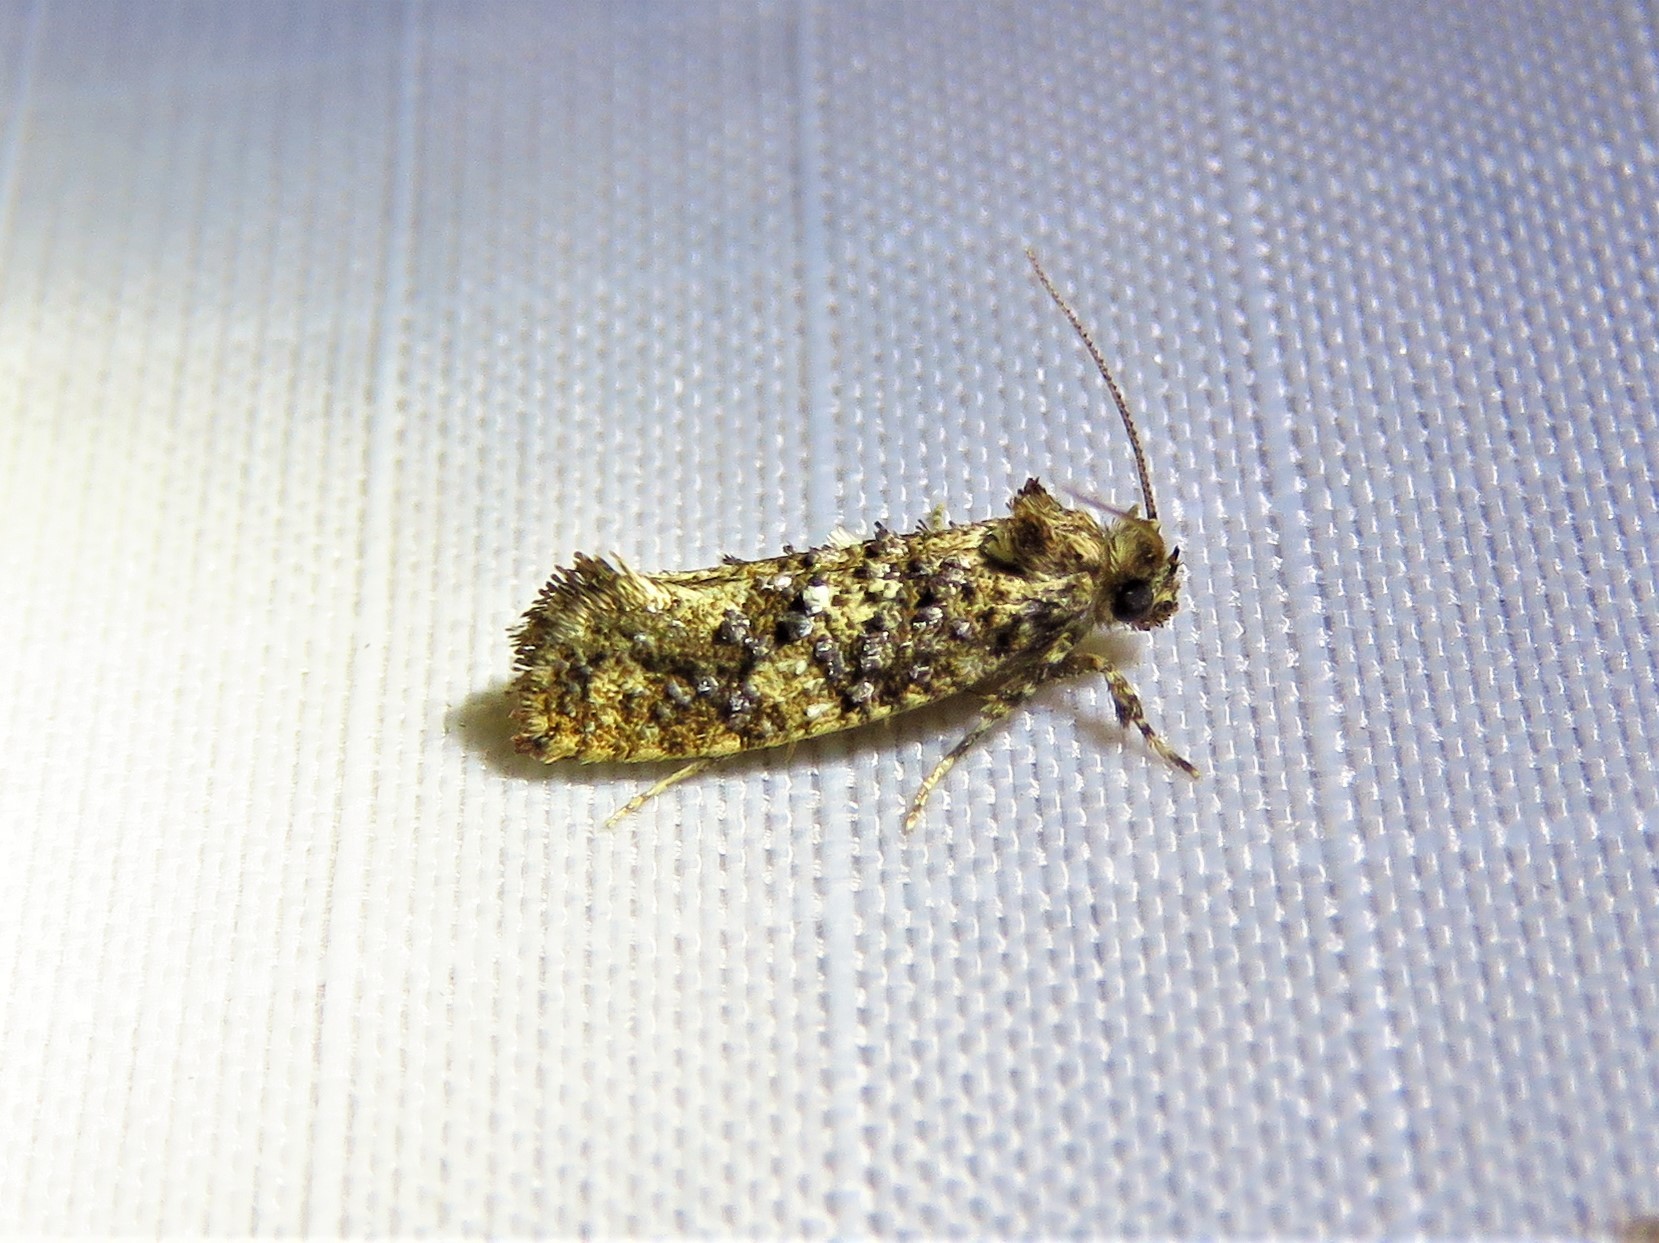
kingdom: Animalia
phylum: Arthropoda
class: Insecta
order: Lepidoptera
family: Tineidae
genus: Acrolophus
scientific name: Acrolophus cressoni
